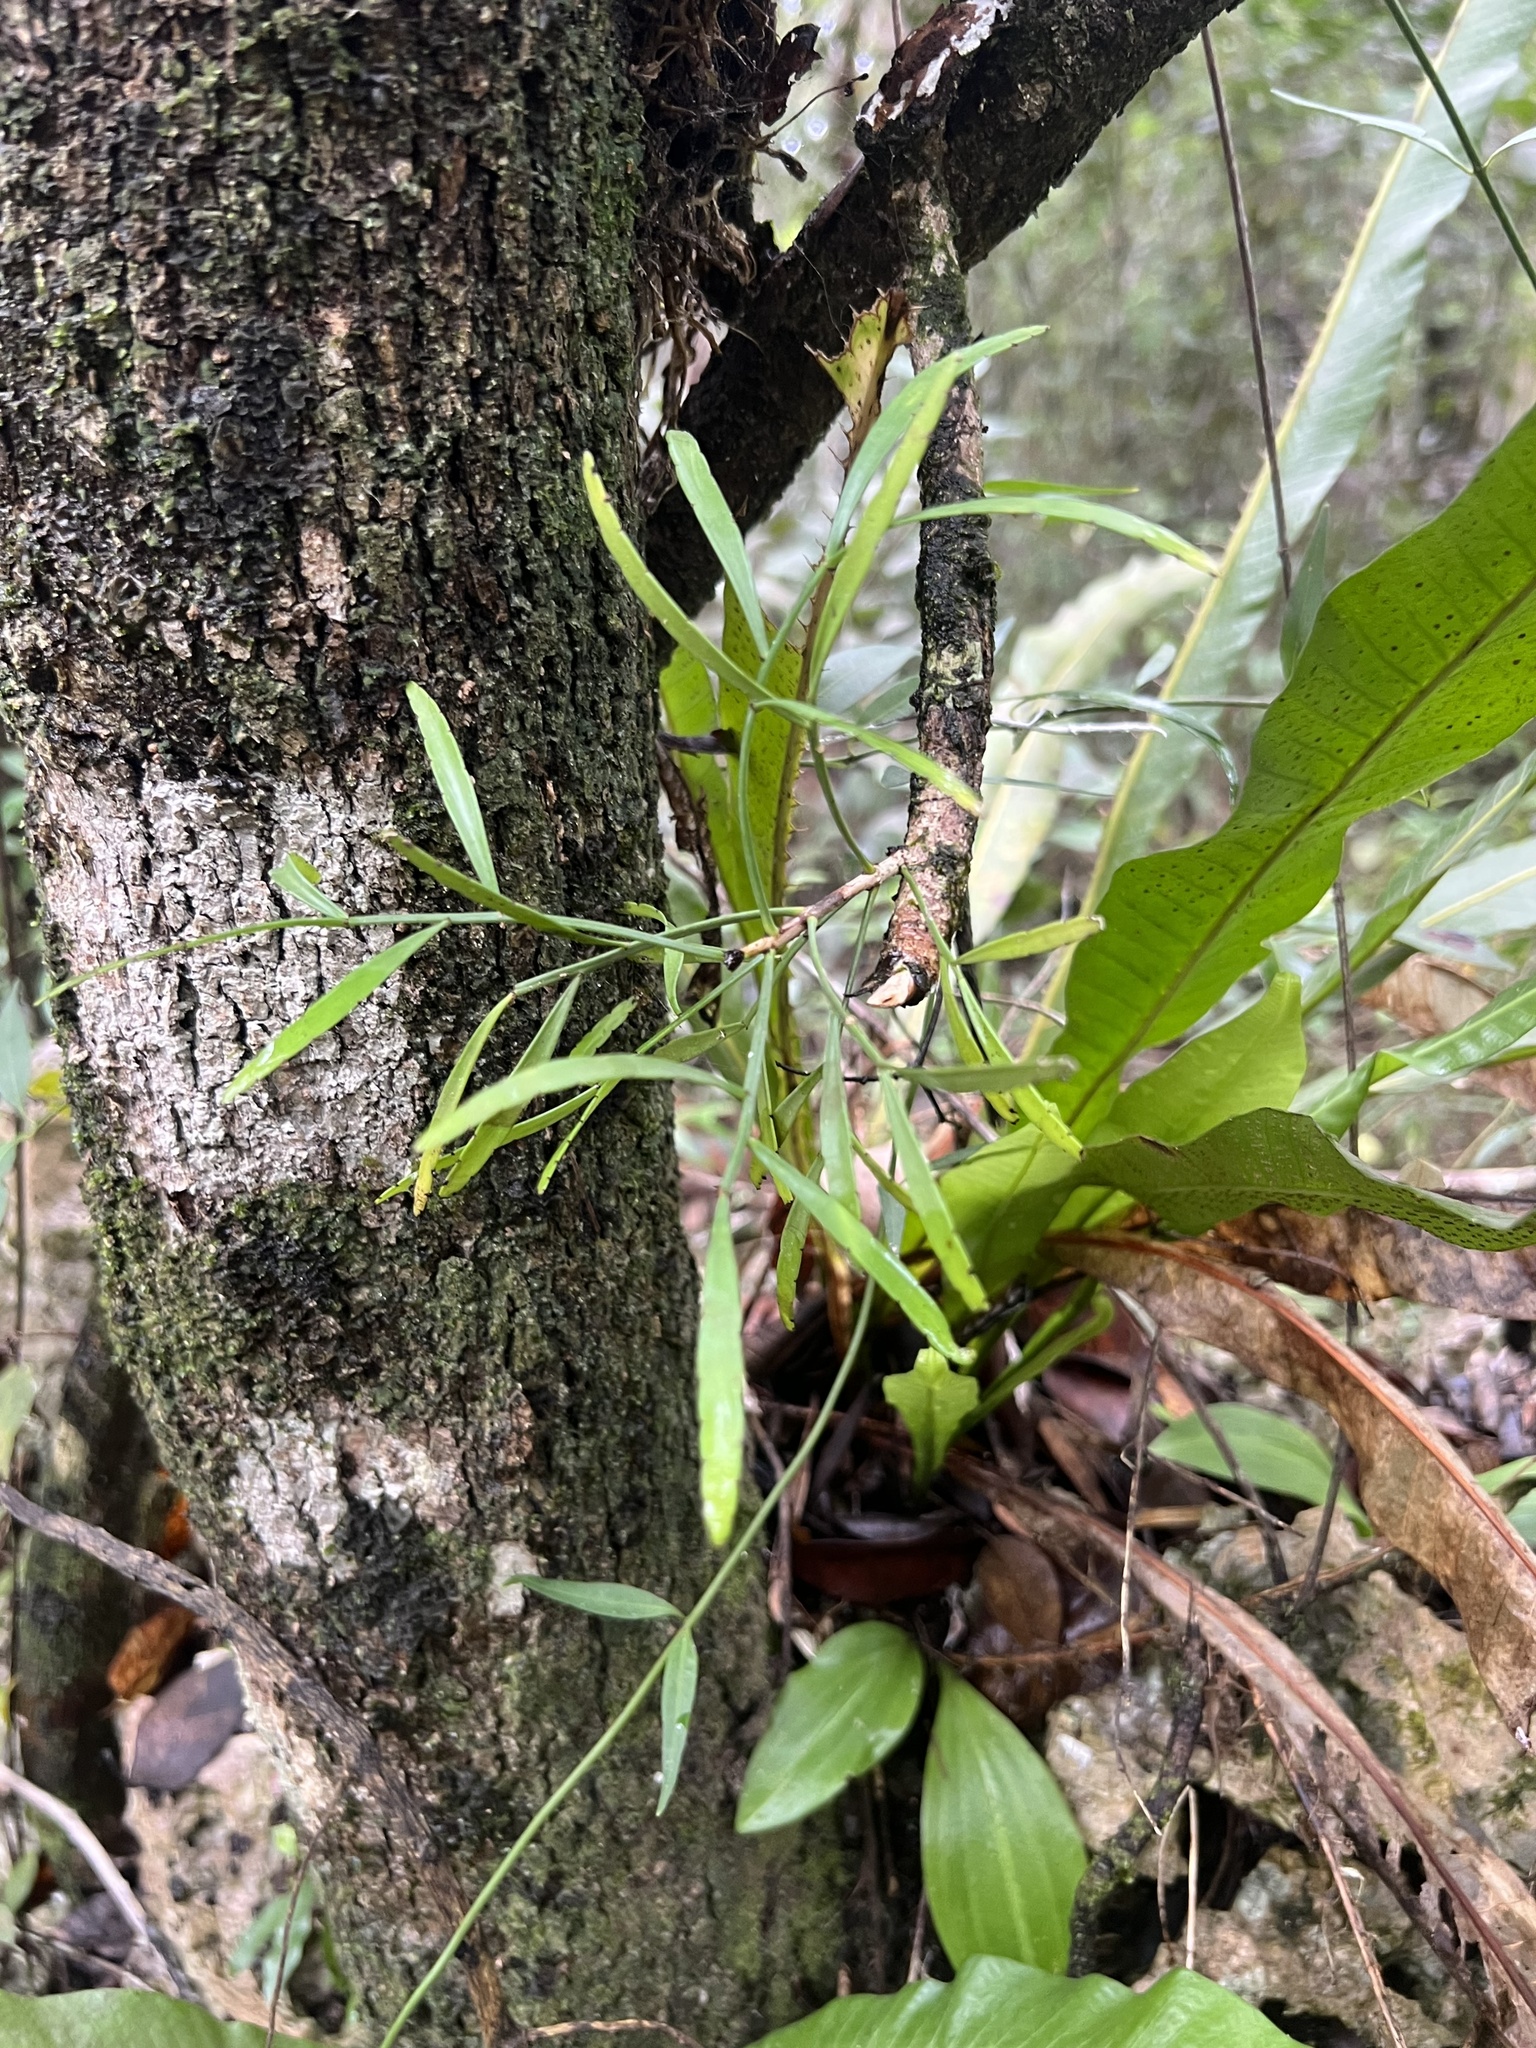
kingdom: Plantae
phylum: Tracheophyta
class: Magnoliopsida
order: Malpighiales
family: Phyllanthaceae
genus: Phyllanthus
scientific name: Phyllanthus angustifolius
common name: Foliage flower
